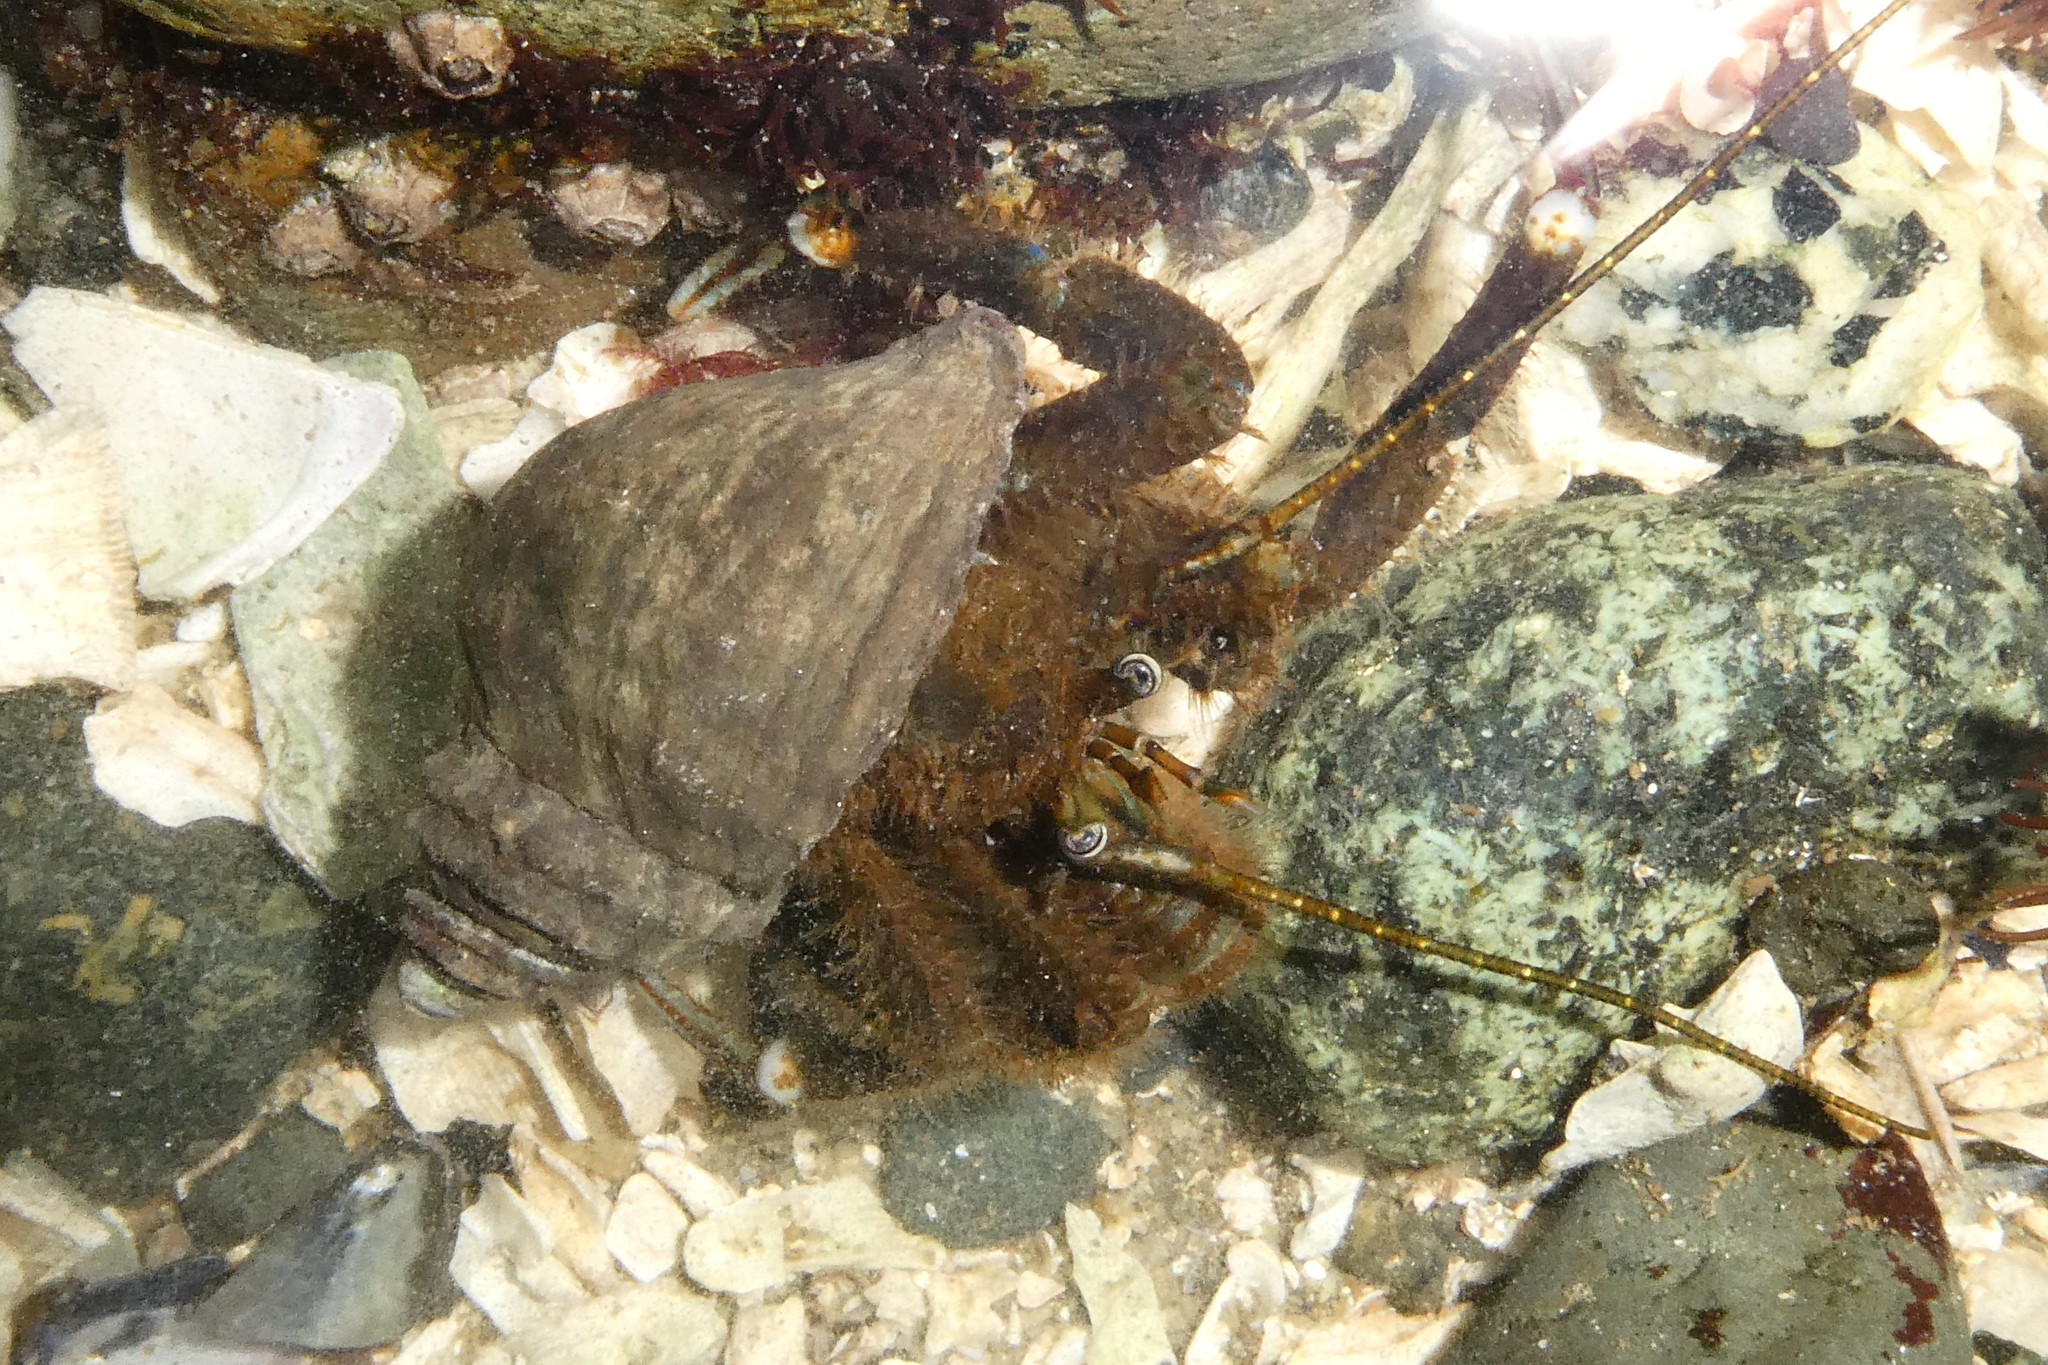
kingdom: Animalia
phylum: Arthropoda
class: Malacostraca
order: Decapoda
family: Paguridae
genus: Pagurus
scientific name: Pagurus hirsutiusculus
